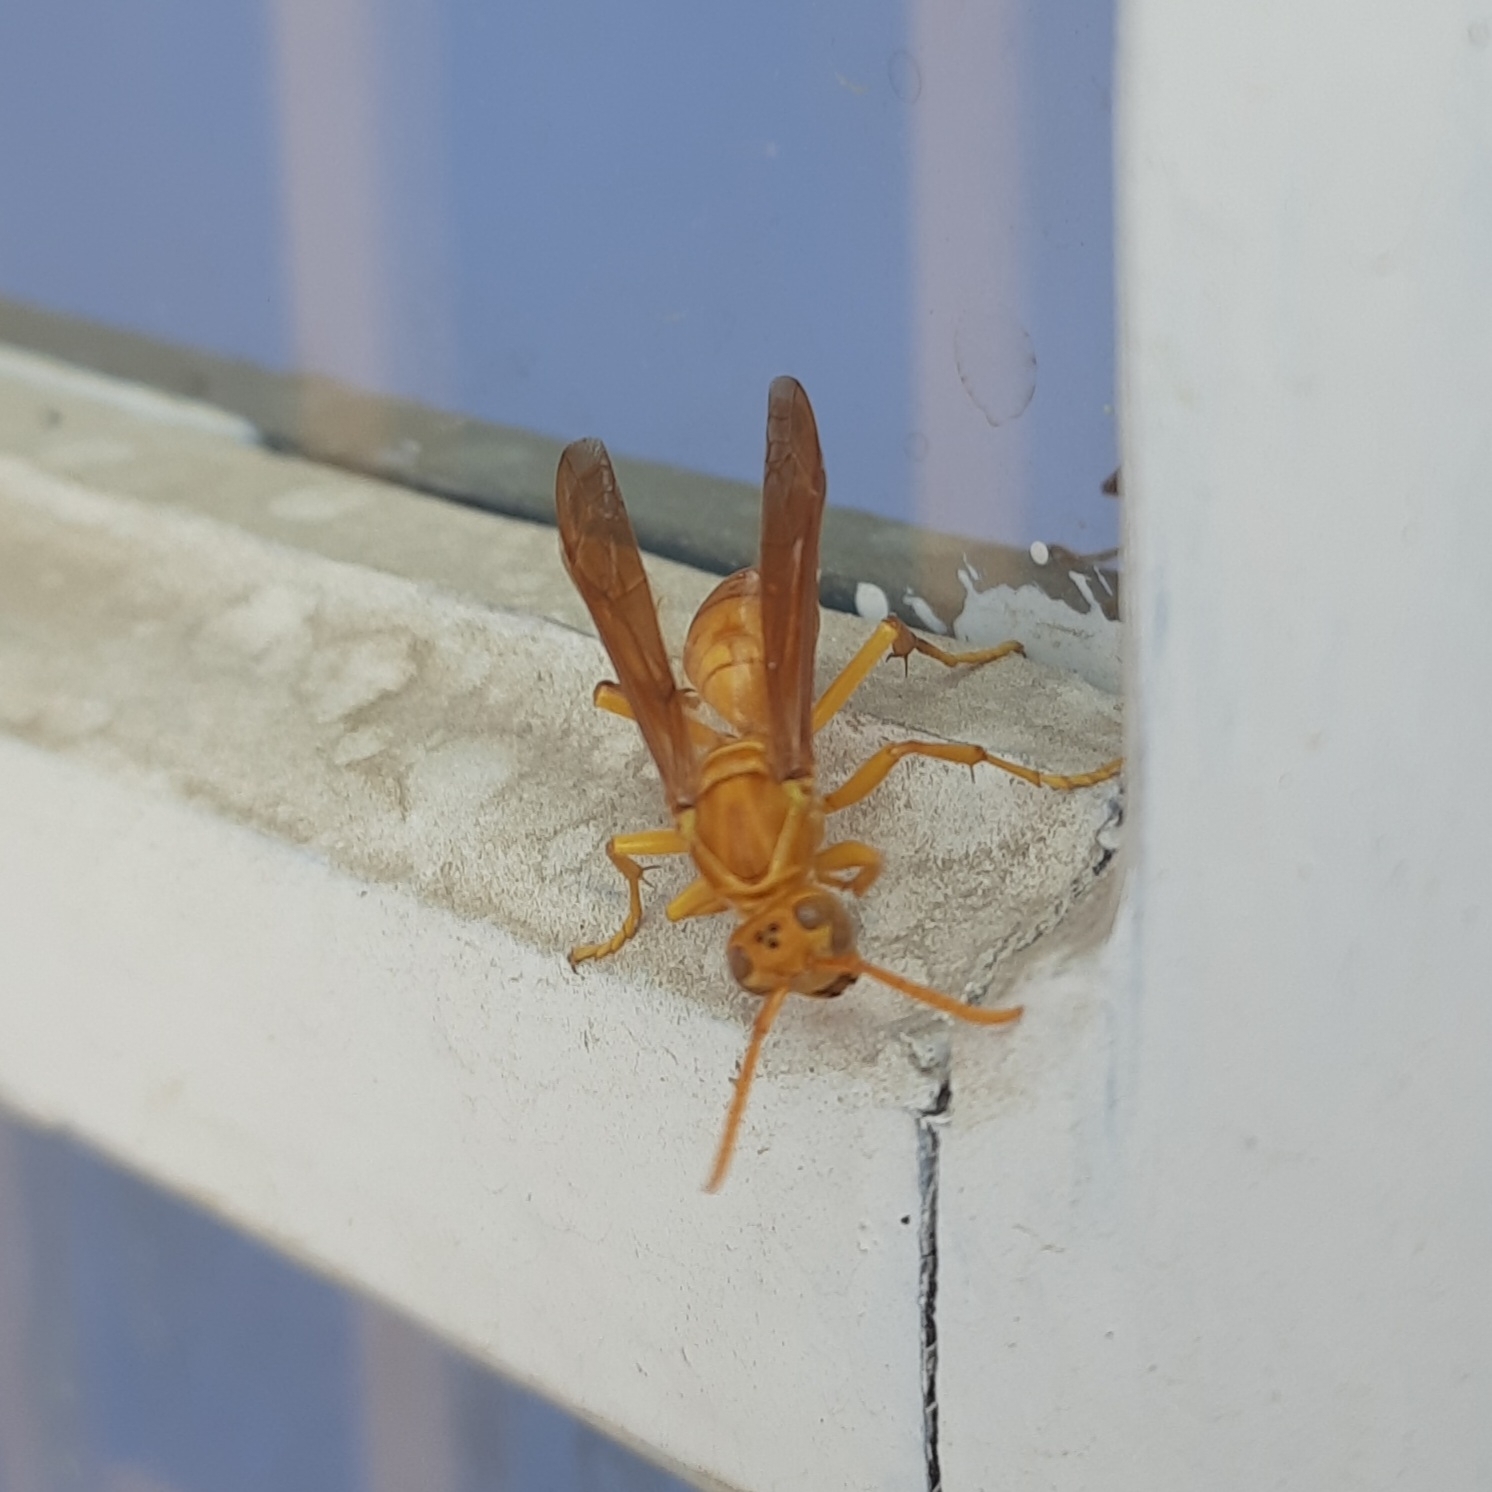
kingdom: Animalia
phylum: Arthropoda
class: Insecta
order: Hymenoptera
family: Eumenidae
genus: Polistes
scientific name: Polistes wattii
